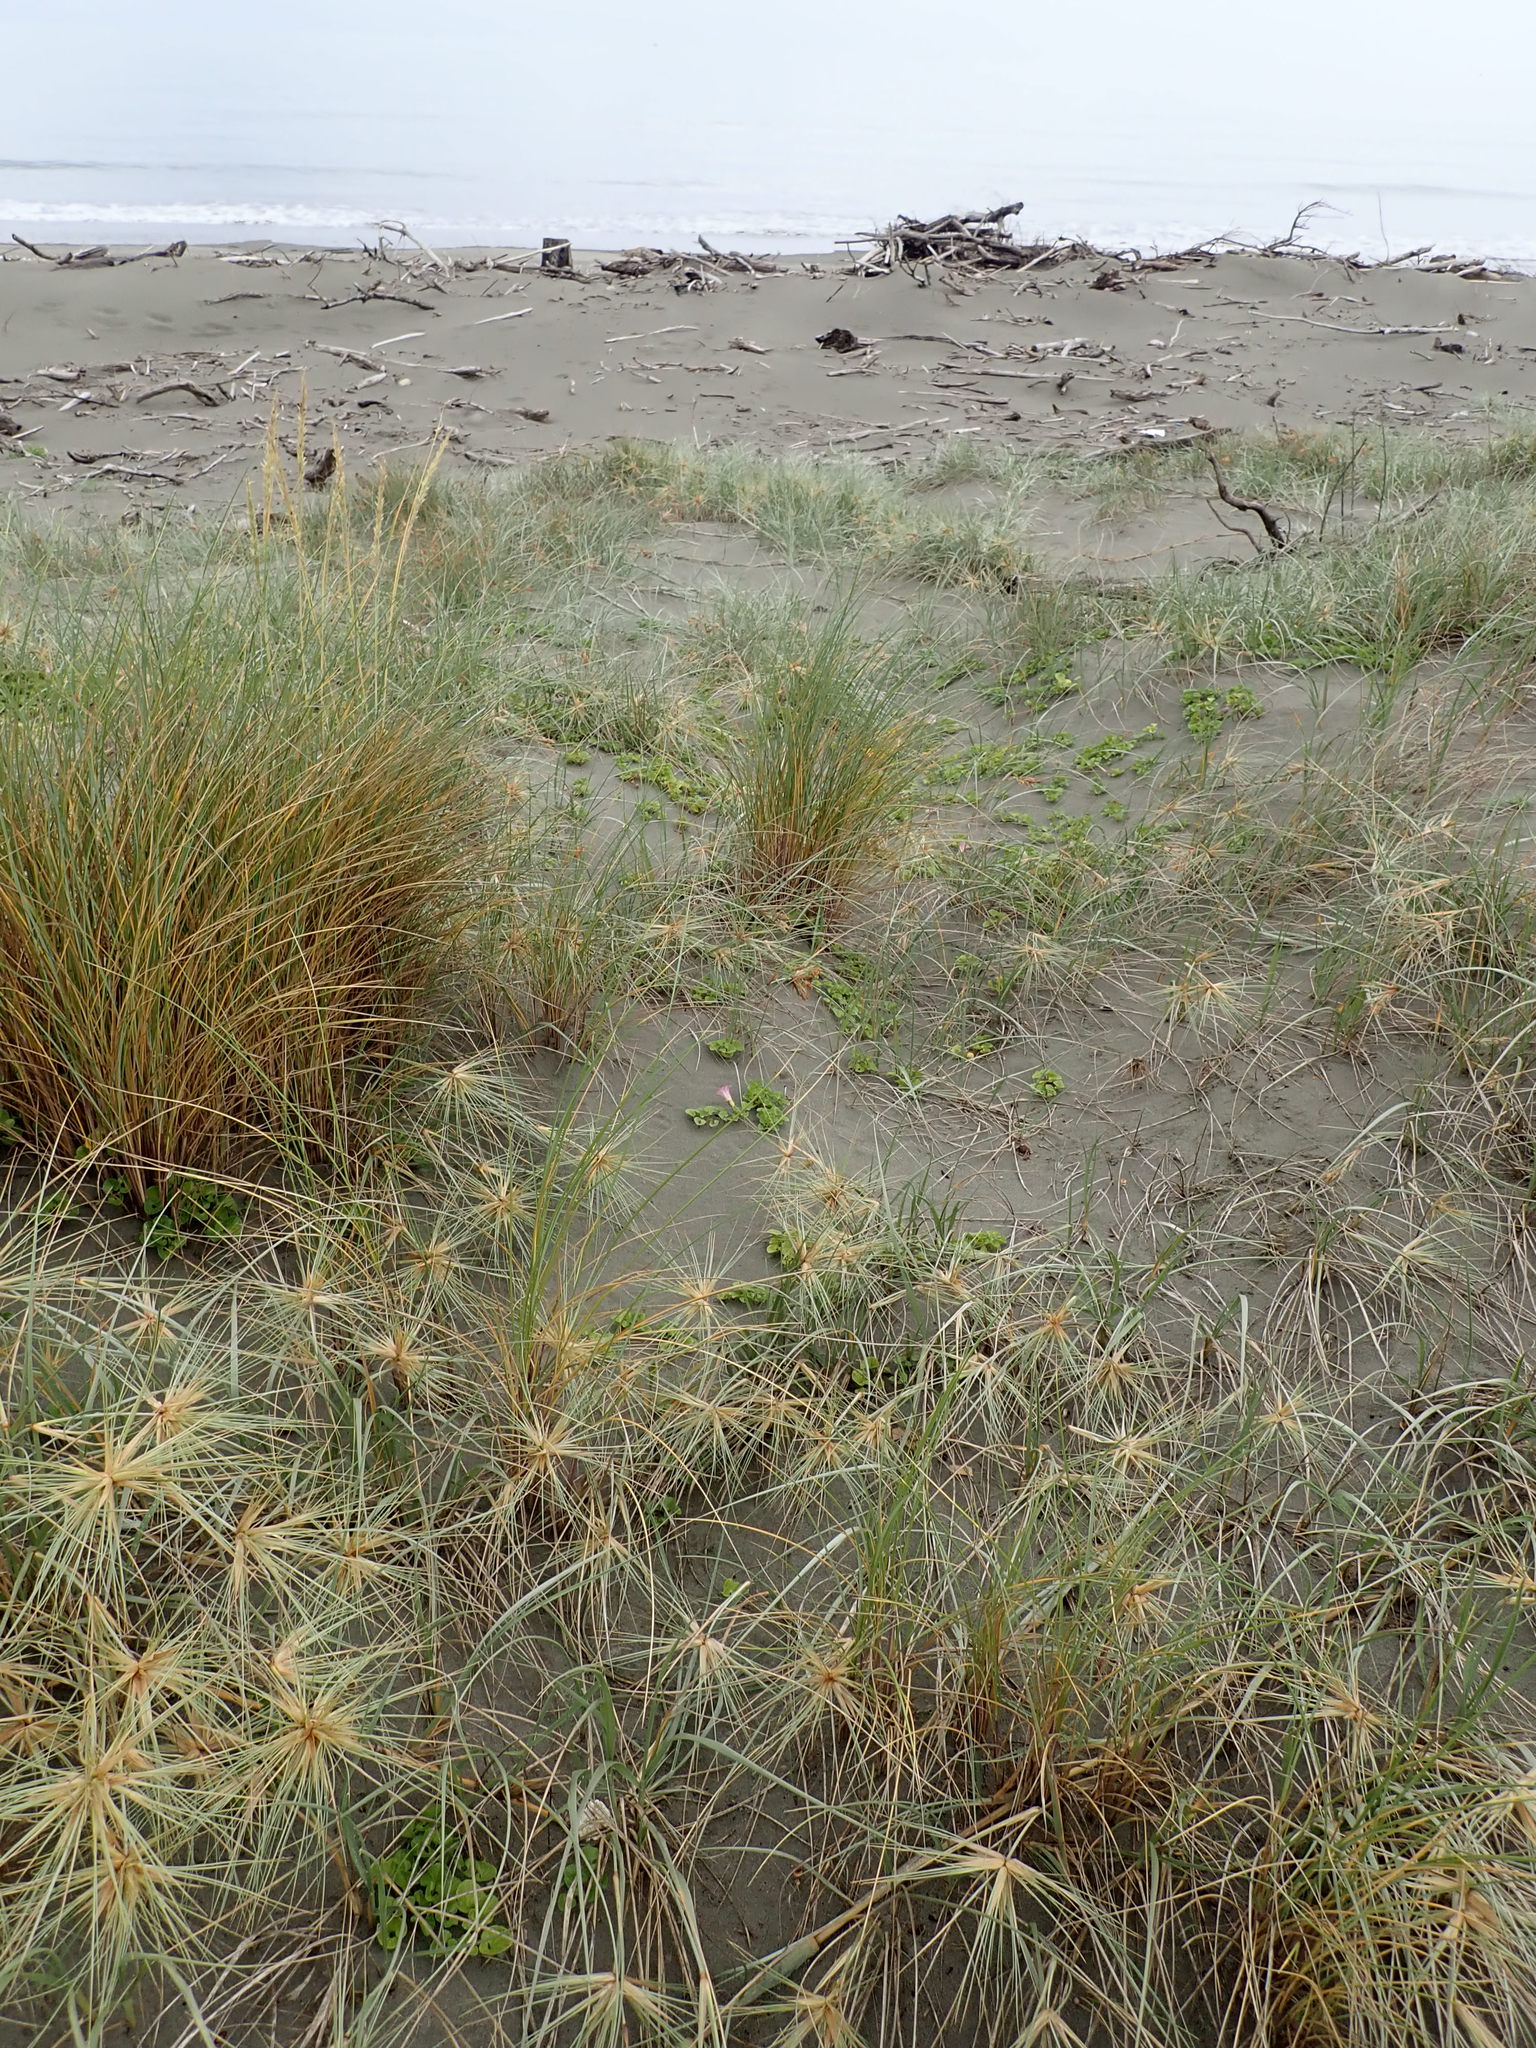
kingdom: Plantae
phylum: Tracheophyta
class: Magnoliopsida
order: Solanales
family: Convolvulaceae
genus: Calystegia
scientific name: Calystegia soldanella
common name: Sea bindweed
